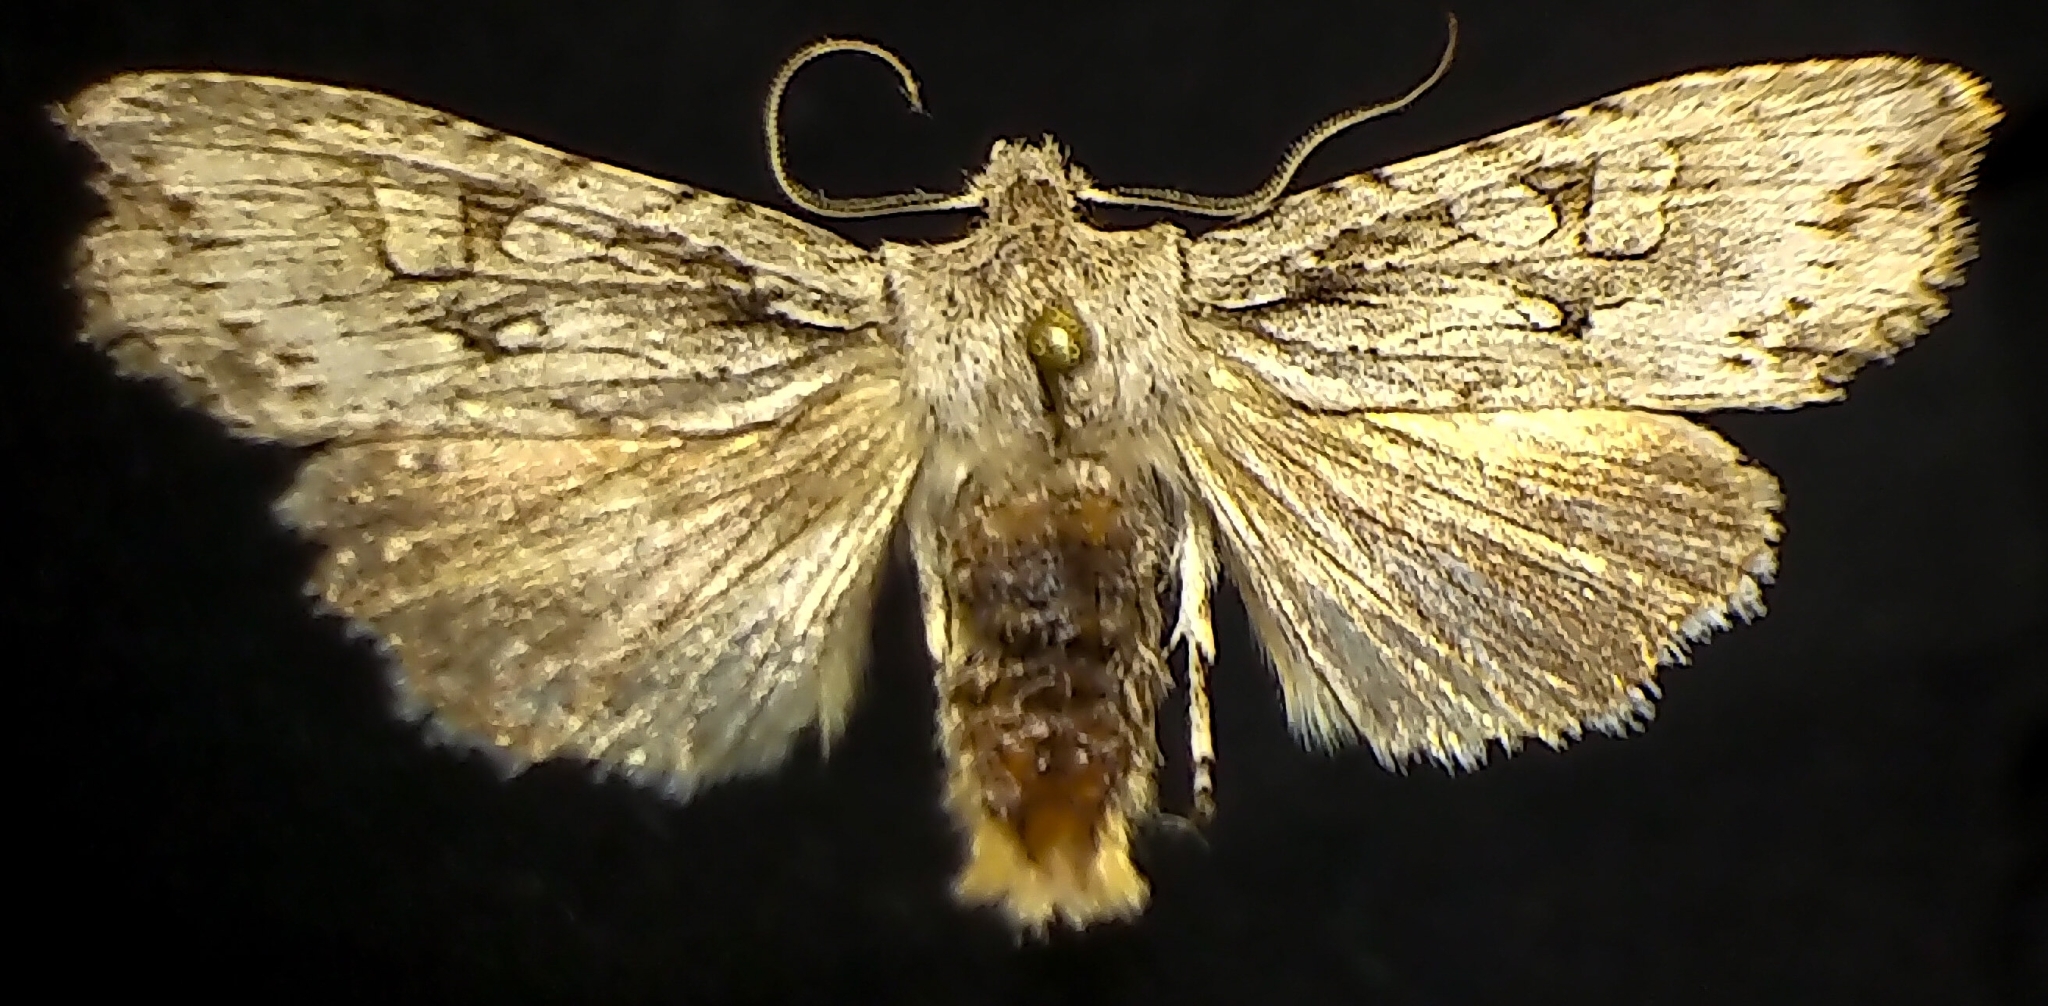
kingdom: Animalia
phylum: Arthropoda
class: Insecta
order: Lepidoptera
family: Noctuidae
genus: Lithophane
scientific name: Lithophane disposita
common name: Dashed gray pinion moth
